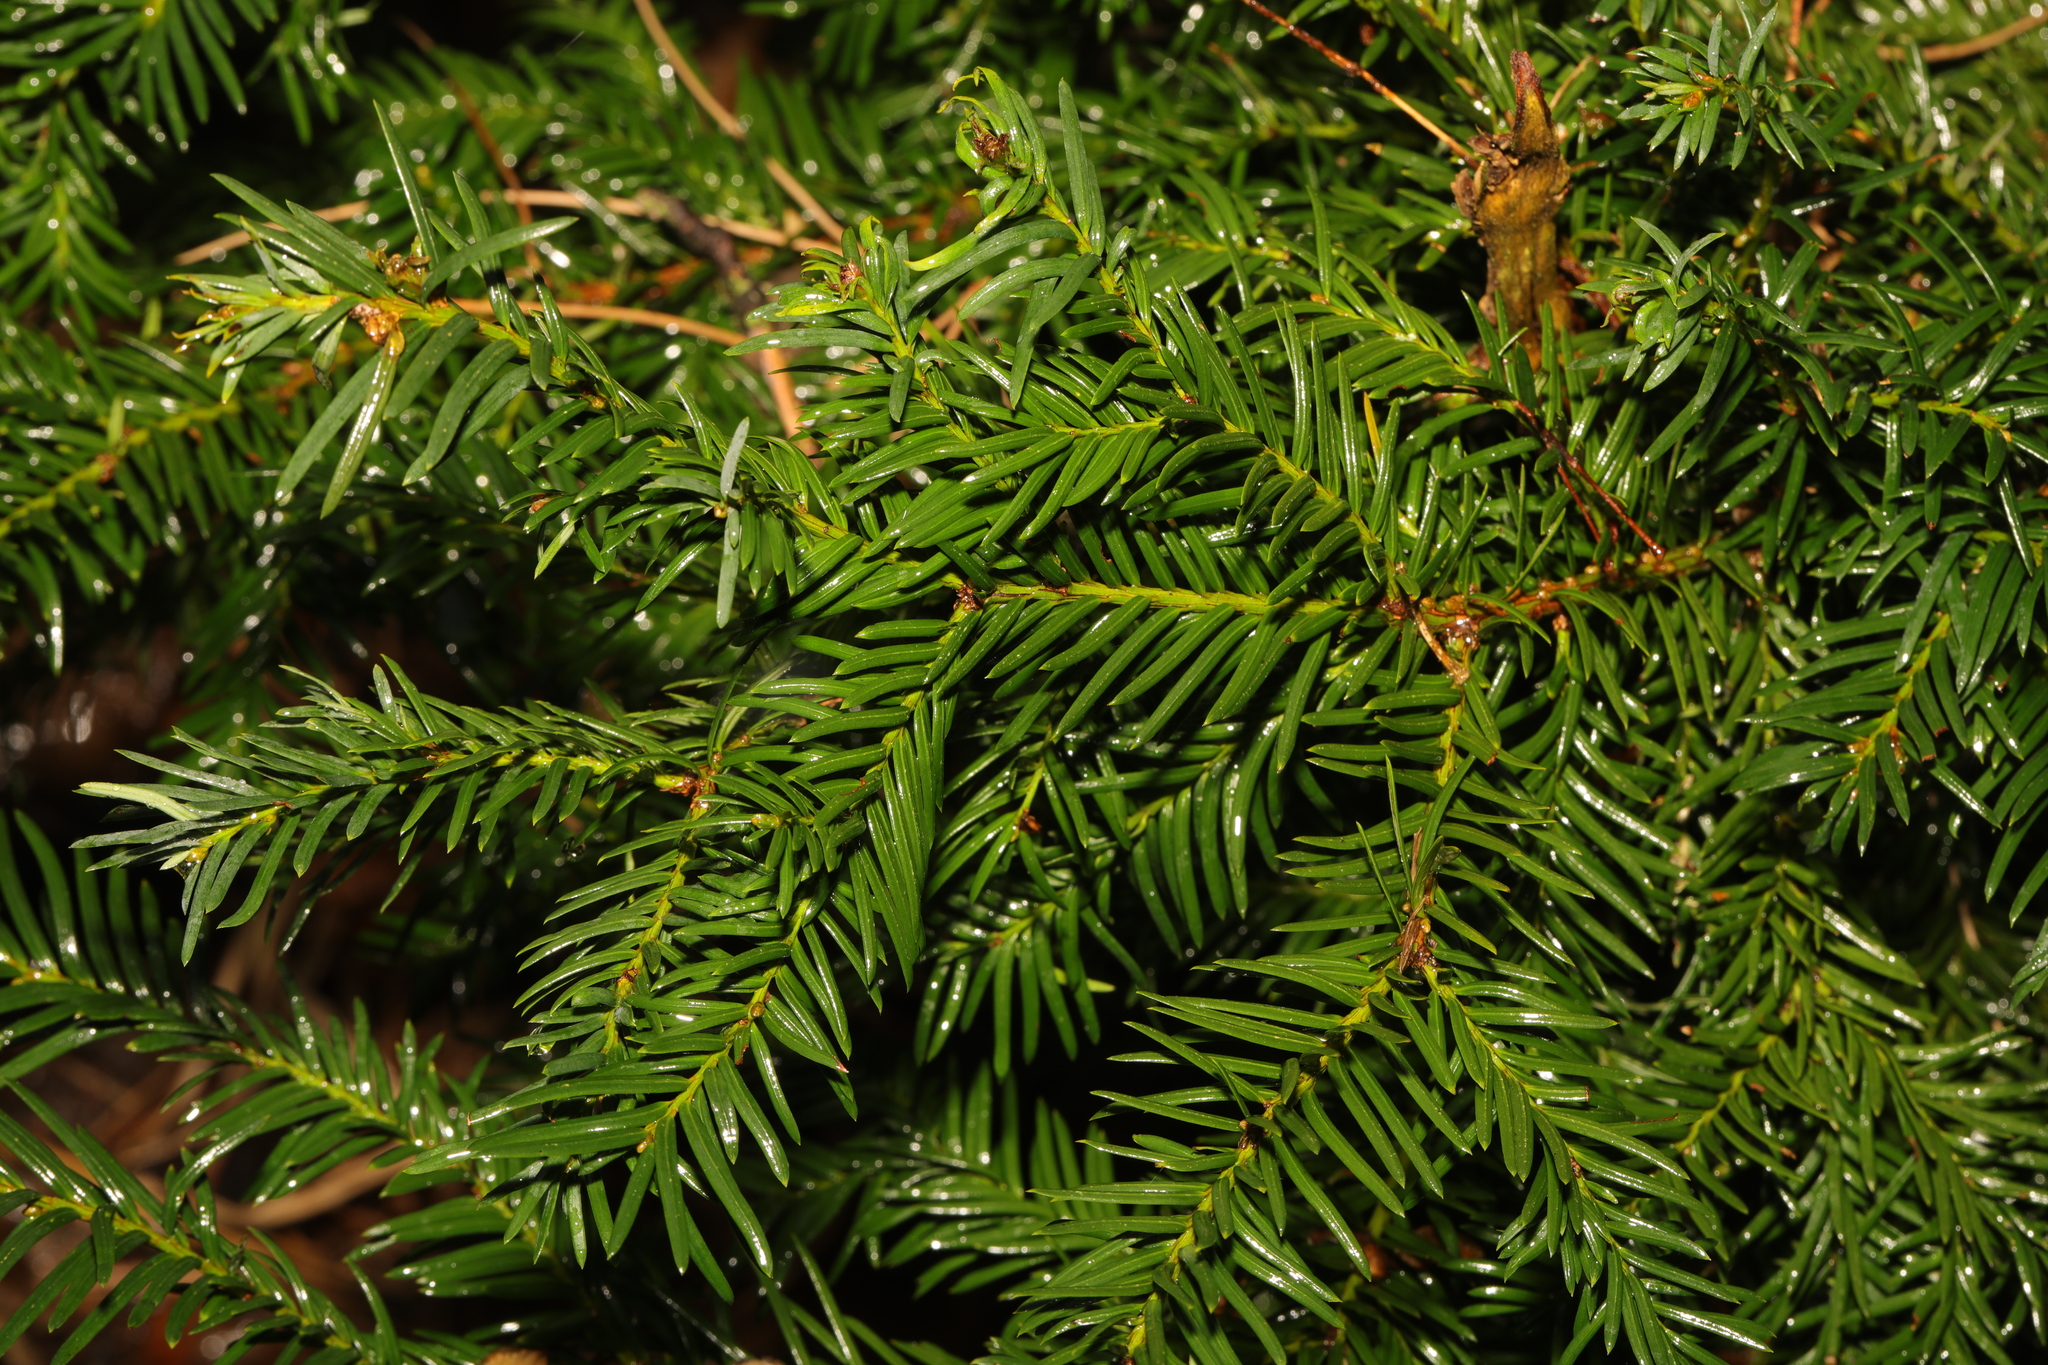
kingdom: Plantae
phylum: Tracheophyta
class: Pinopsida
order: Pinales
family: Taxaceae
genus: Taxus
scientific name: Taxus baccata
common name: Yew
